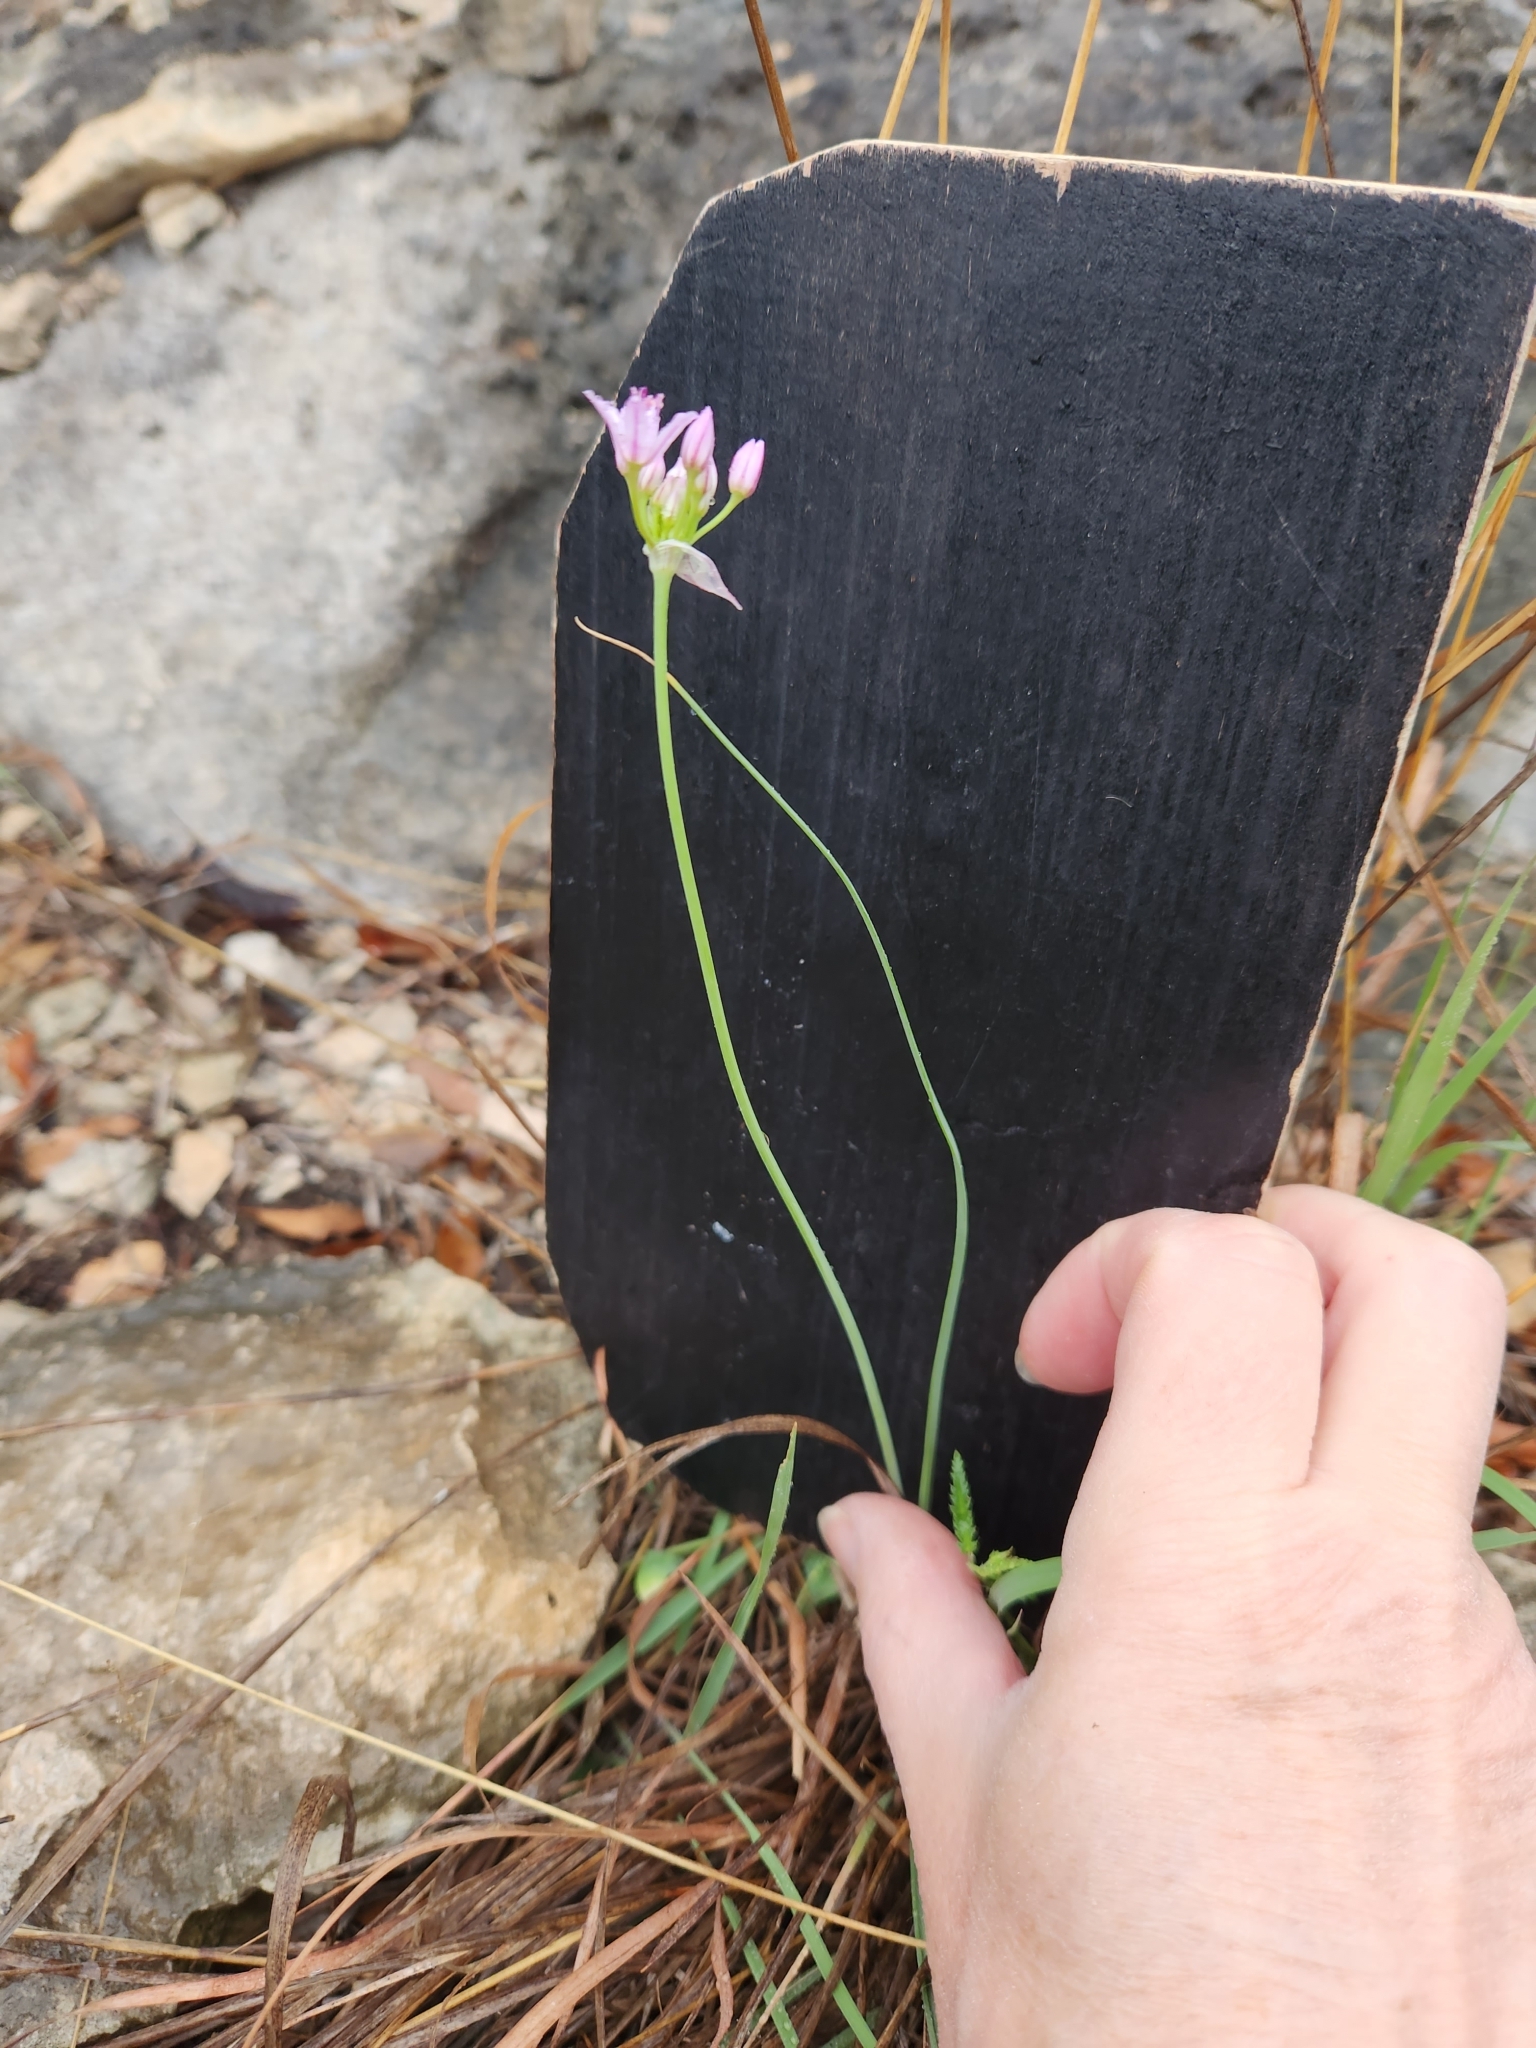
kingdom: Plantae
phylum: Tracheophyta
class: Liliopsida
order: Asparagales
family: Amaryllidaceae
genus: Allium
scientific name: Allium drummondii
